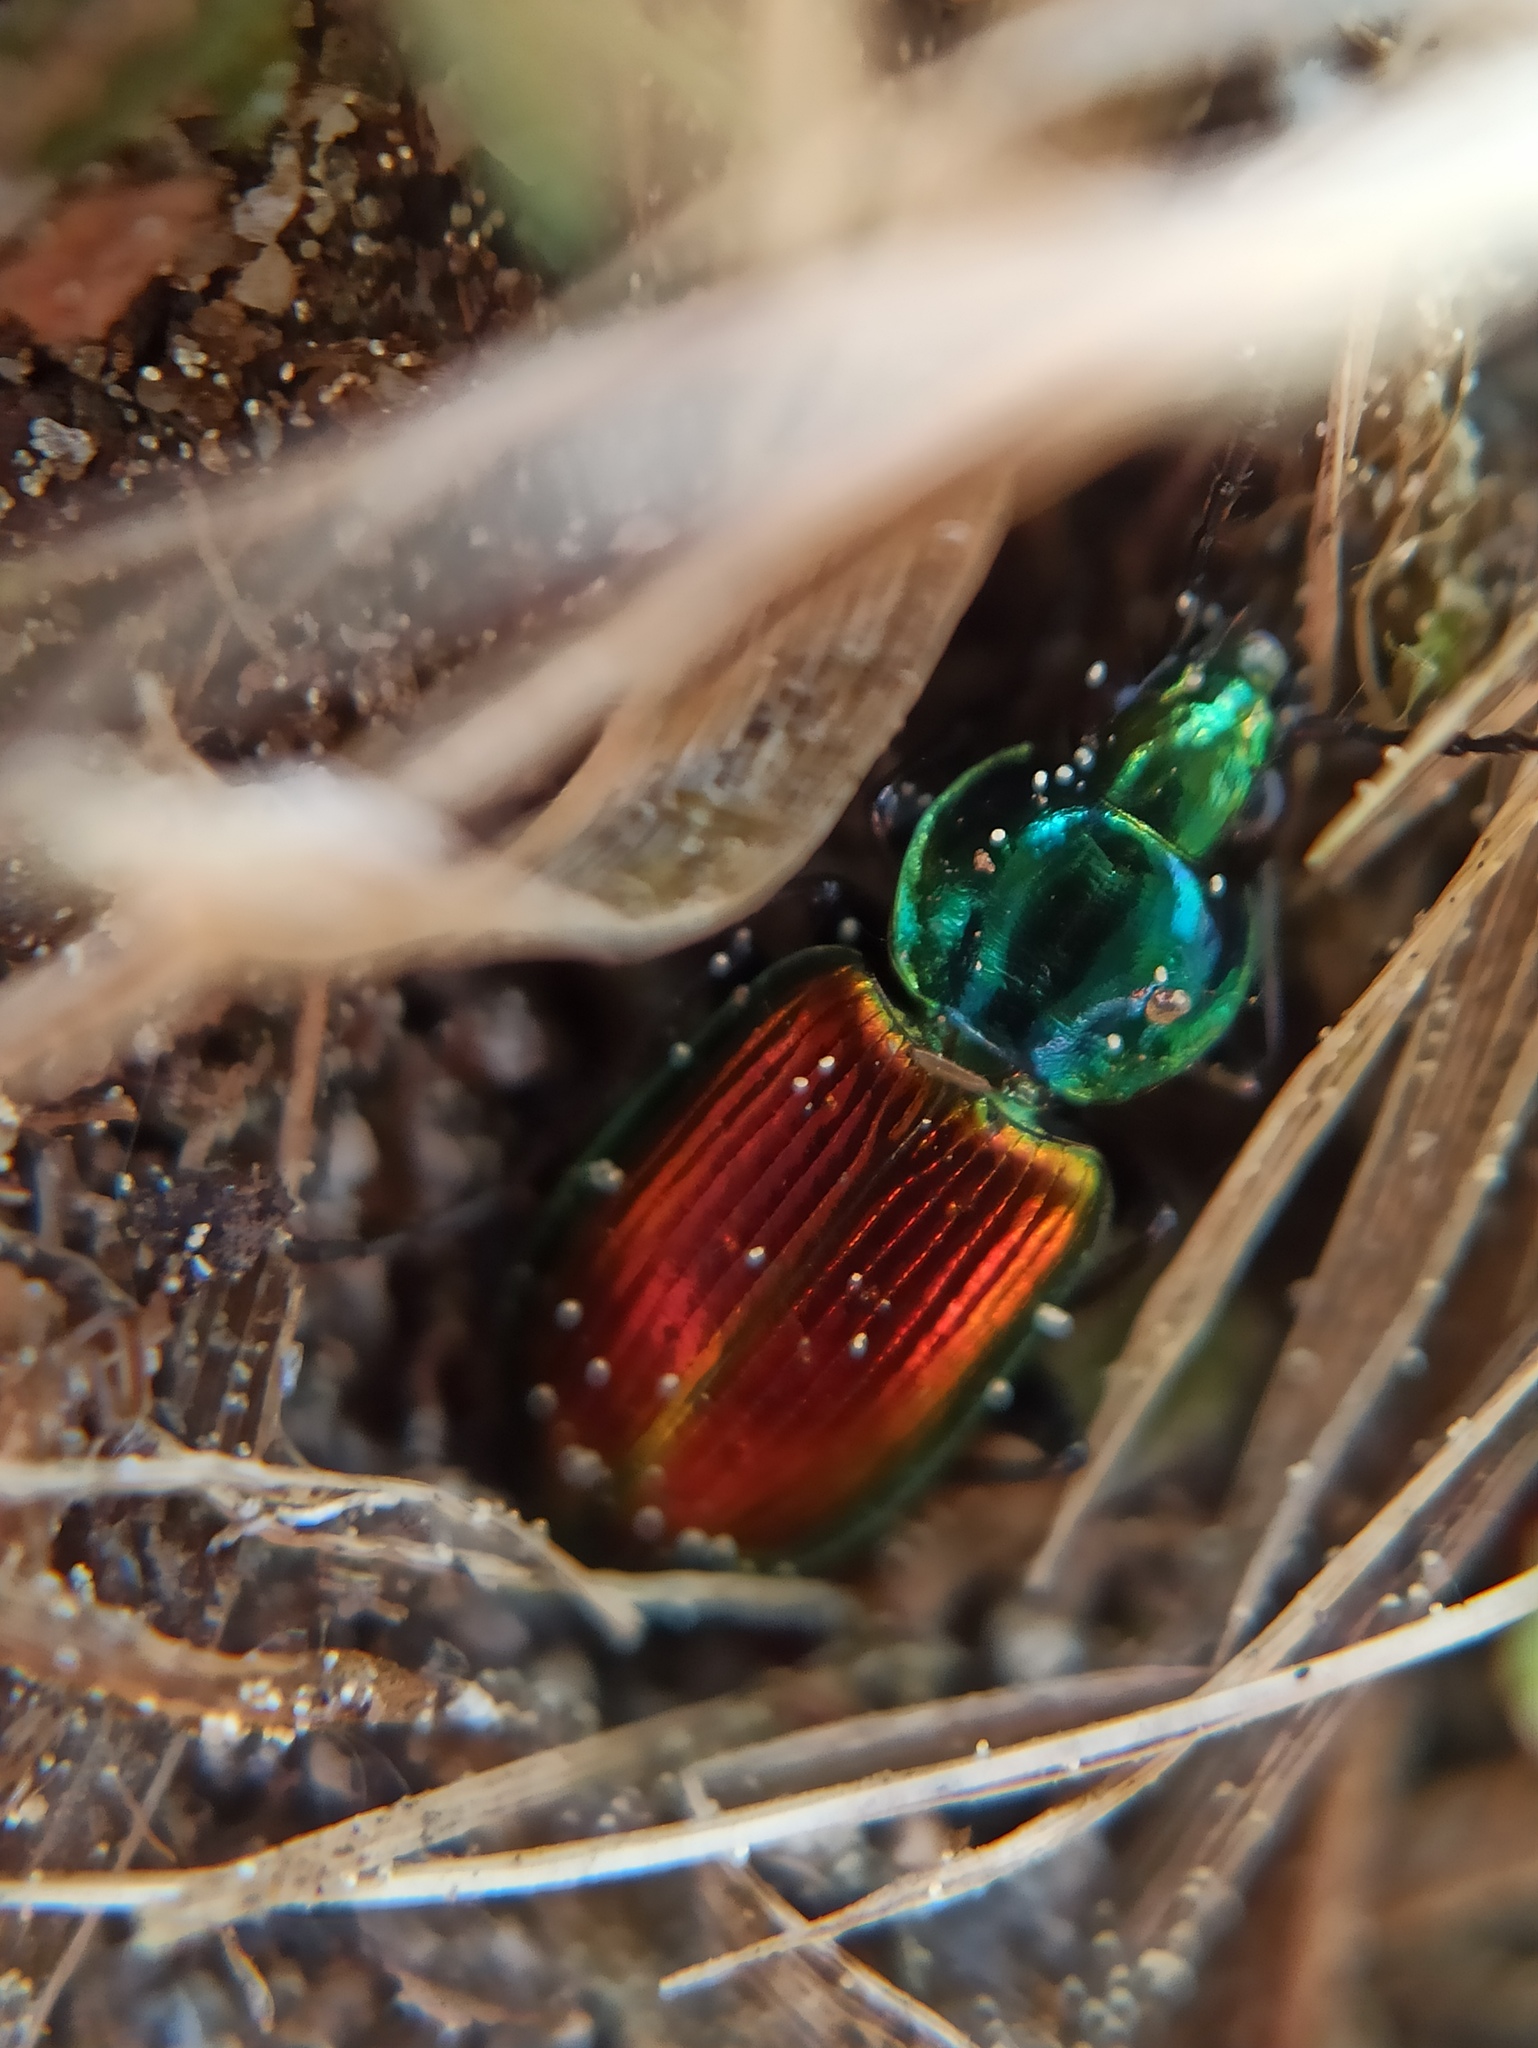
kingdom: Animalia
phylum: Arthropoda
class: Insecta
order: Coleoptera
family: Carabidae
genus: Agonum
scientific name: Agonum sexpunctatum
